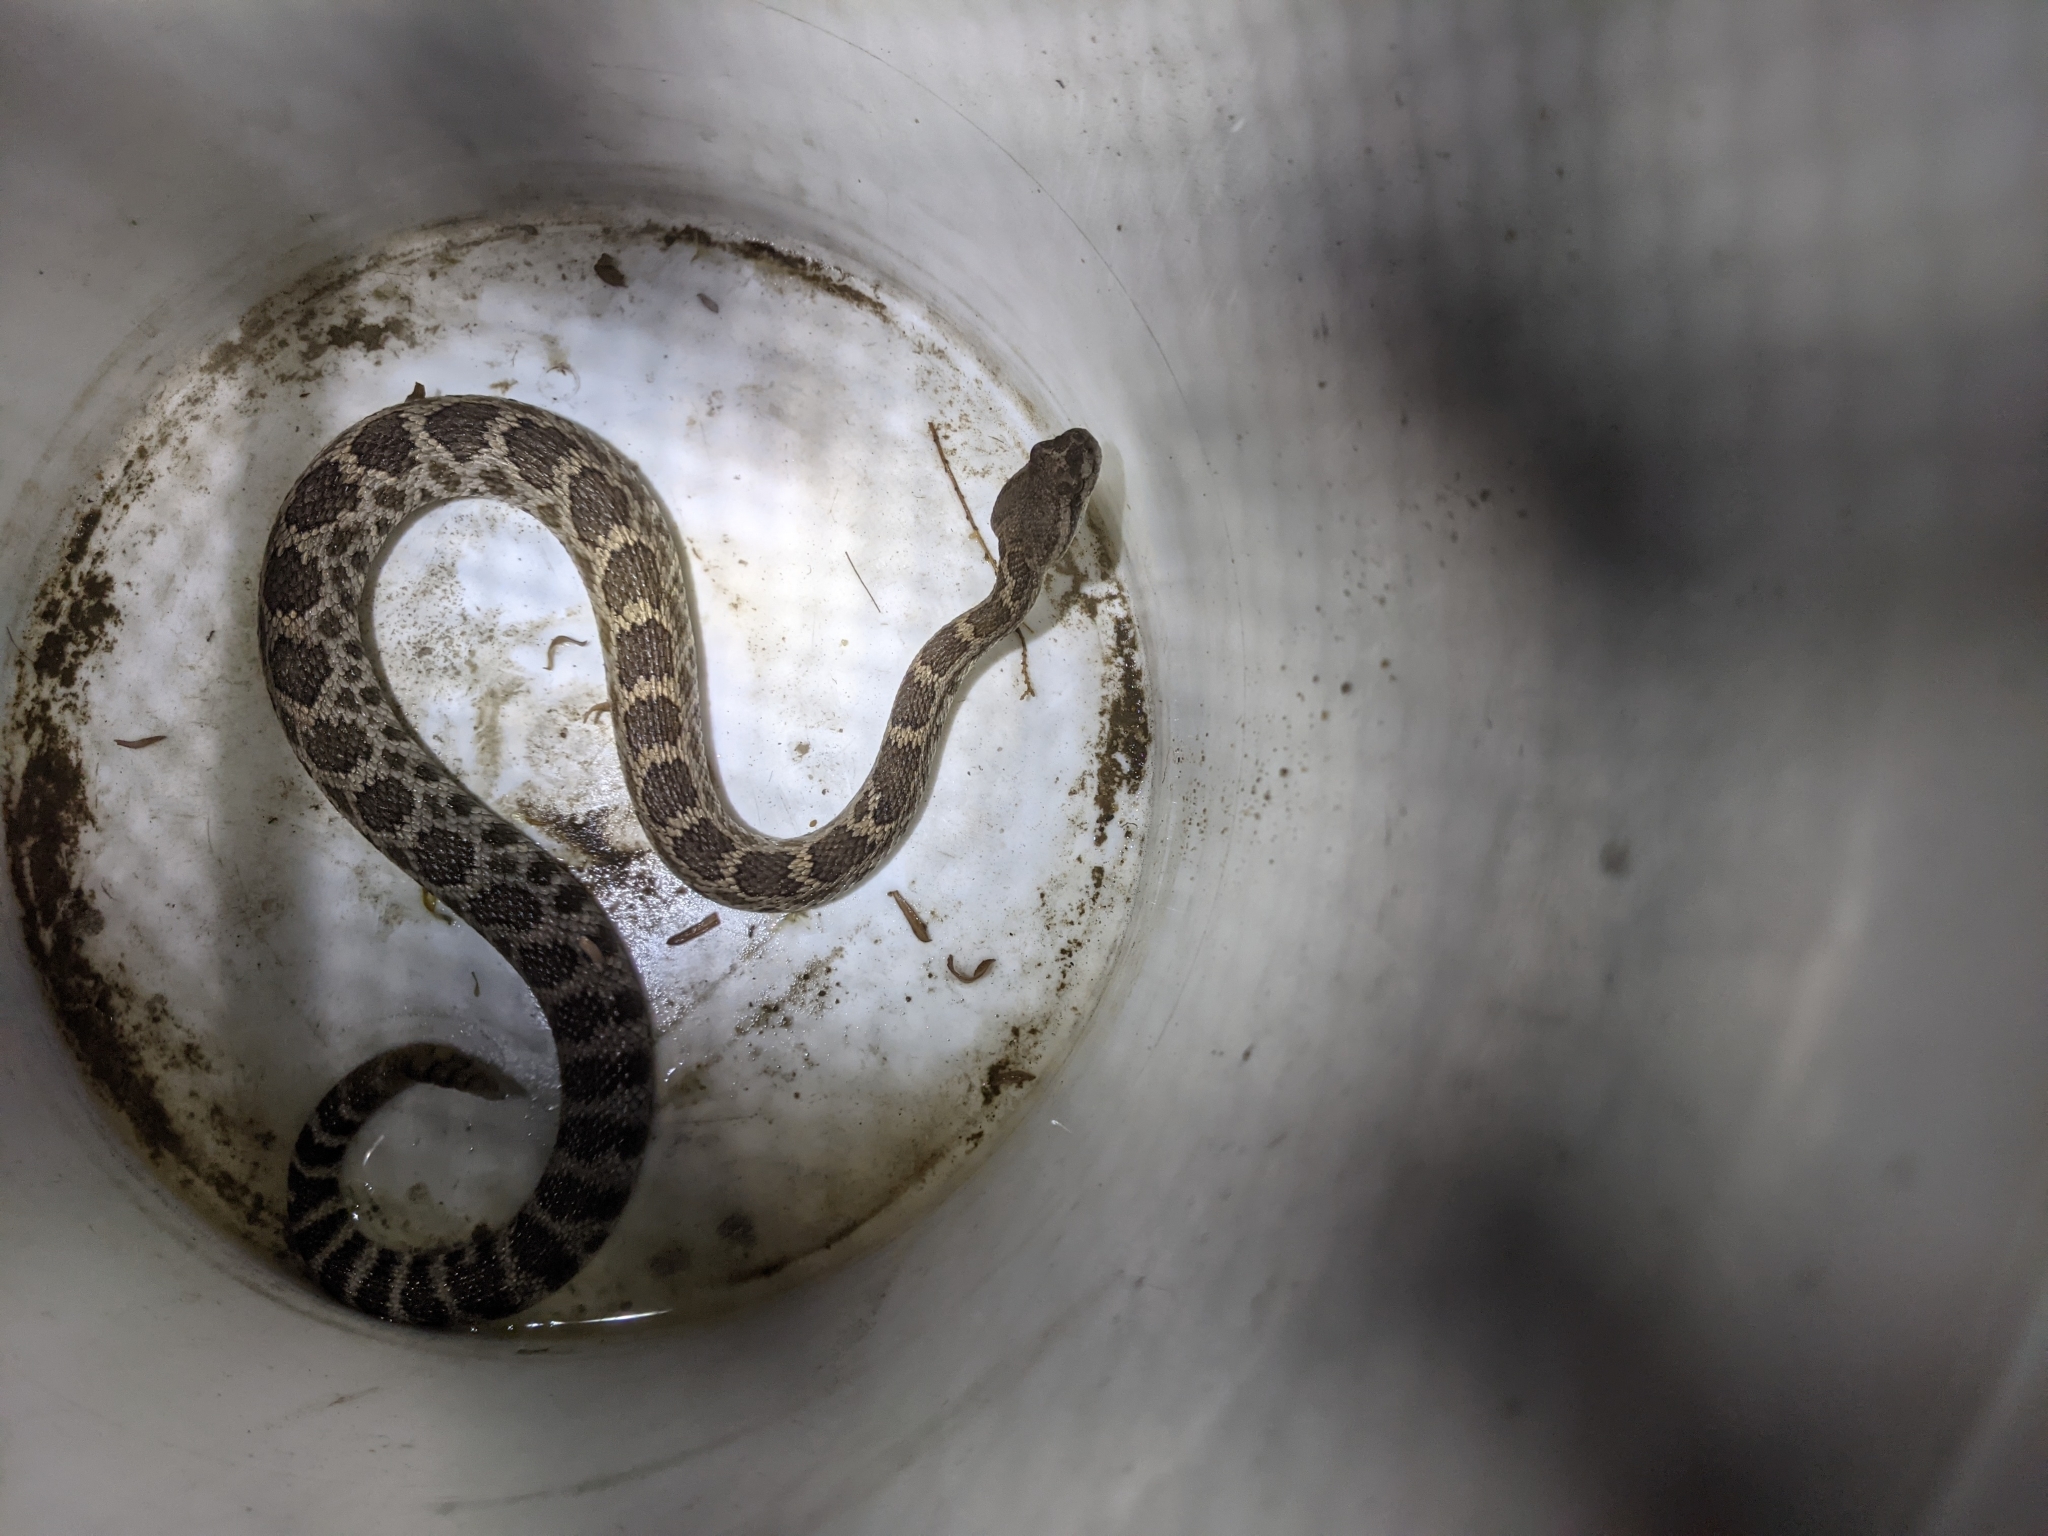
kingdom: Animalia
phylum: Chordata
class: Squamata
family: Viperidae
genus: Crotalus
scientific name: Crotalus oreganus
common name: Abyssus
